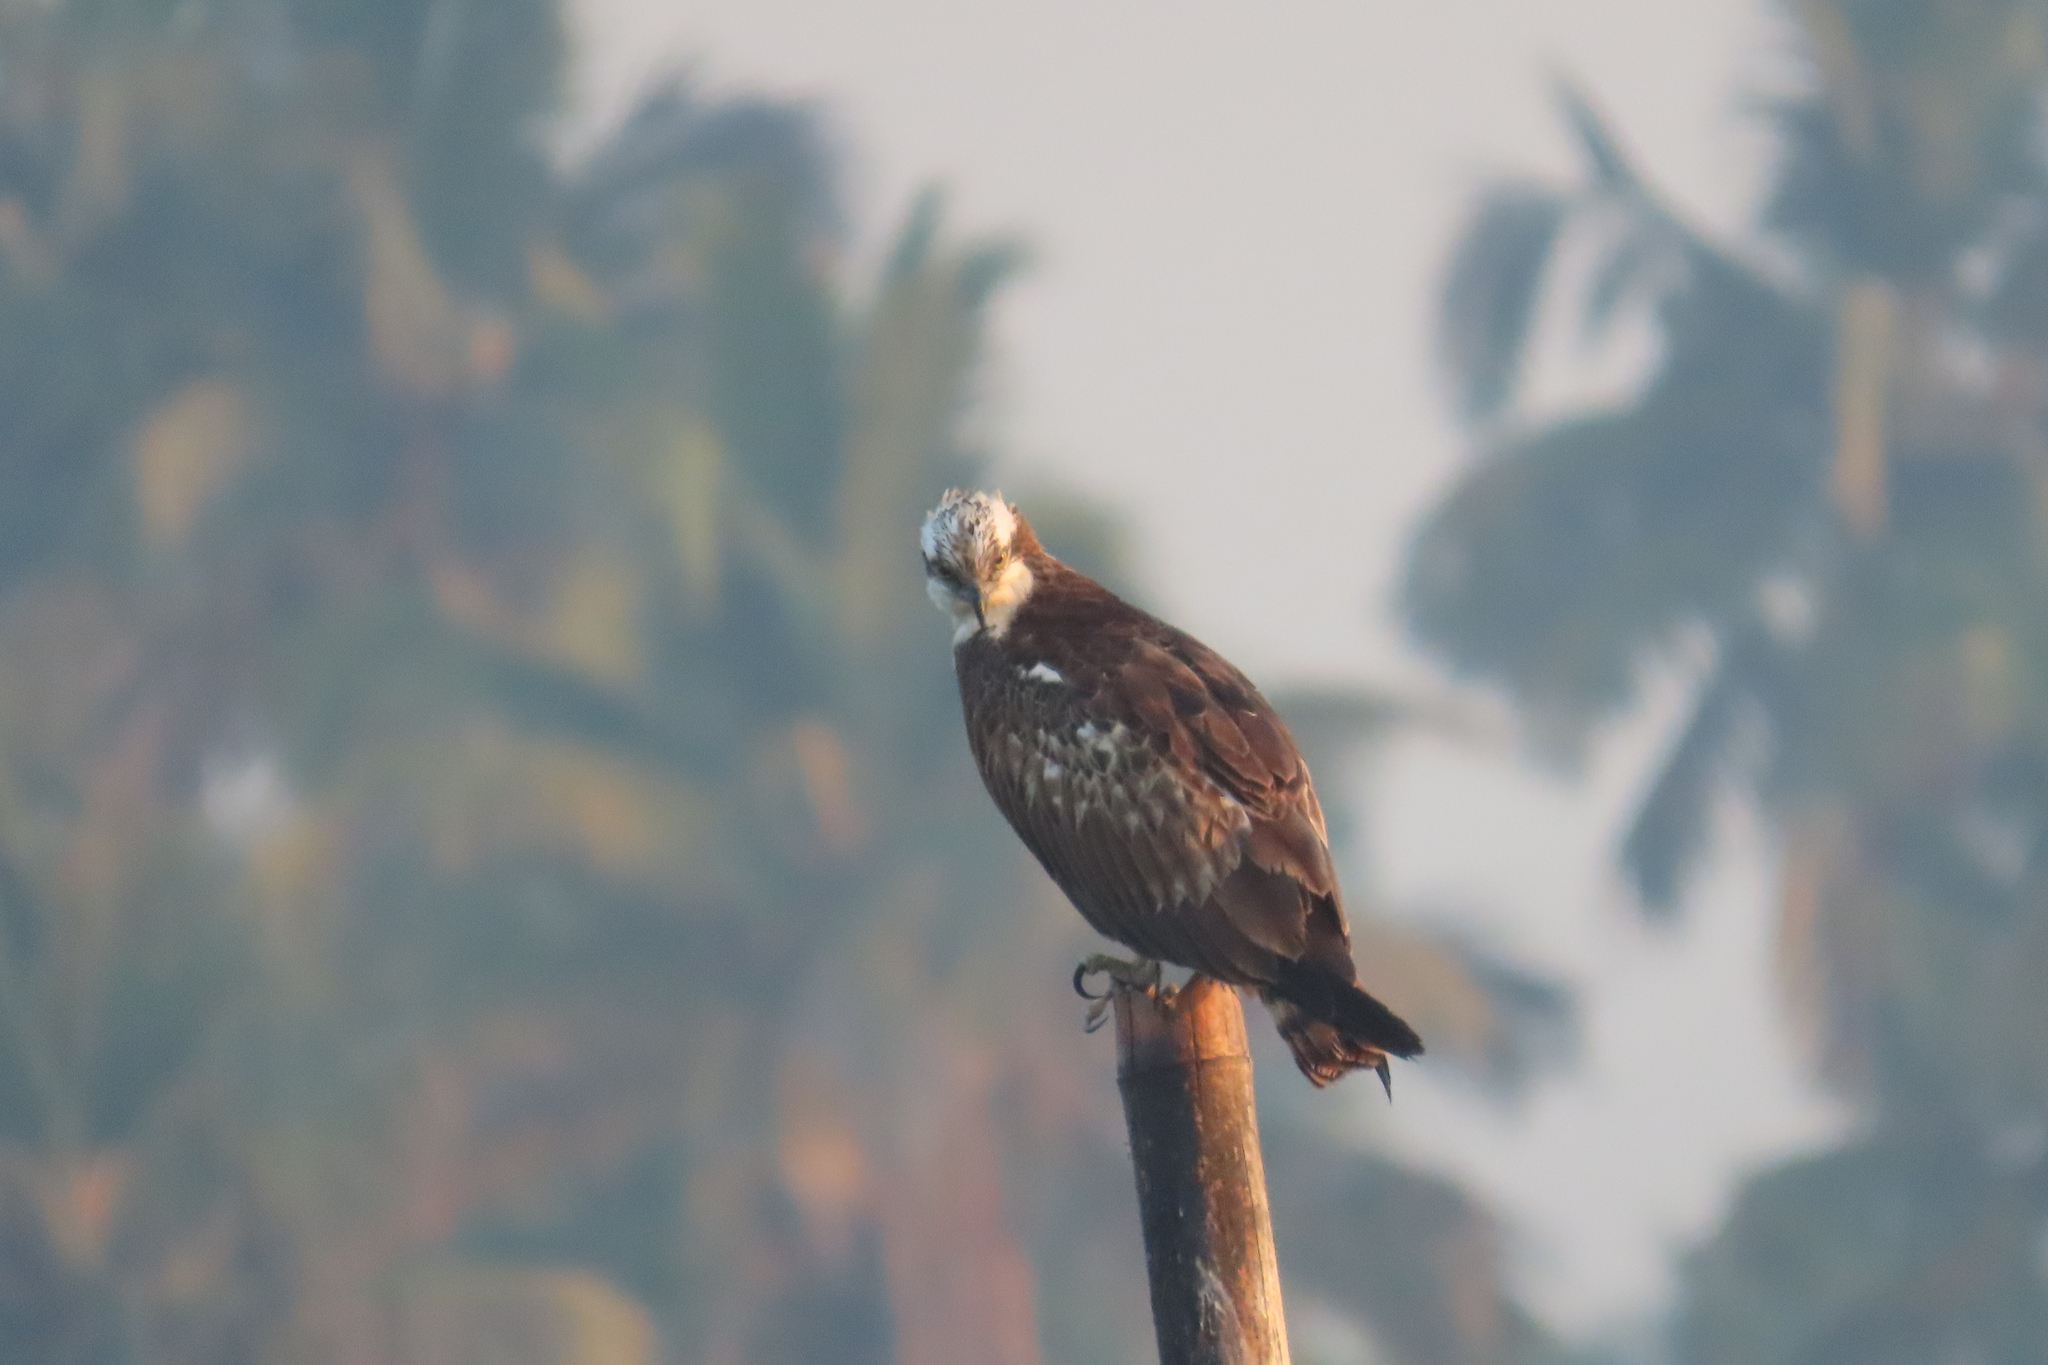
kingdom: Animalia
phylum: Chordata
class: Aves
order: Accipitriformes
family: Pandionidae
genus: Pandion
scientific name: Pandion haliaetus
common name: Osprey
